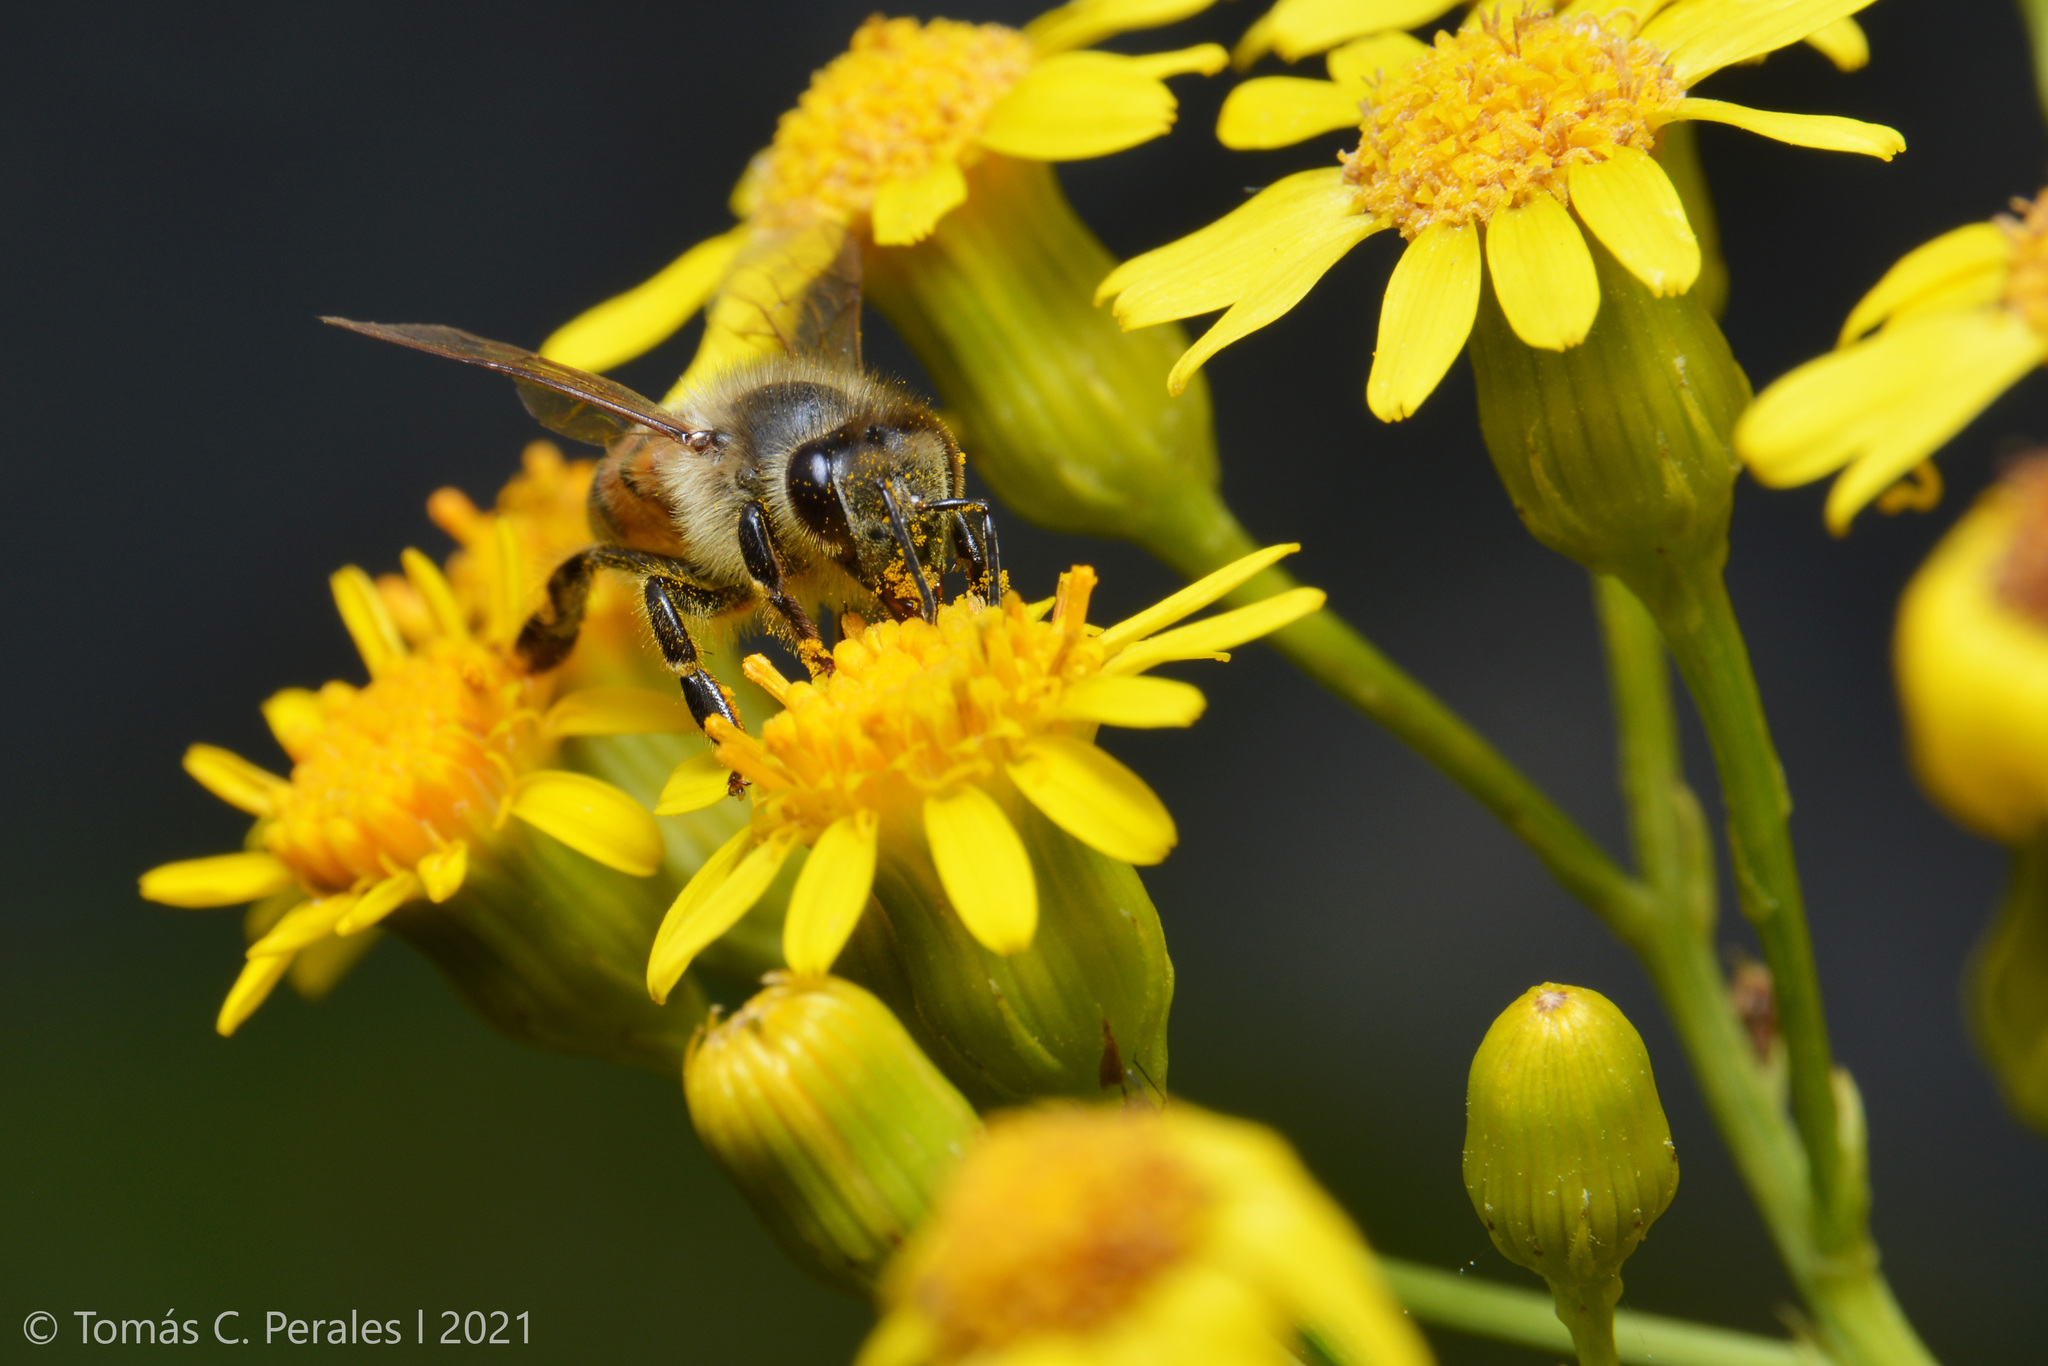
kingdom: Animalia
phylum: Arthropoda
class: Insecta
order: Hymenoptera
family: Apidae
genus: Apis
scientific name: Apis mellifera
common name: Honey bee
